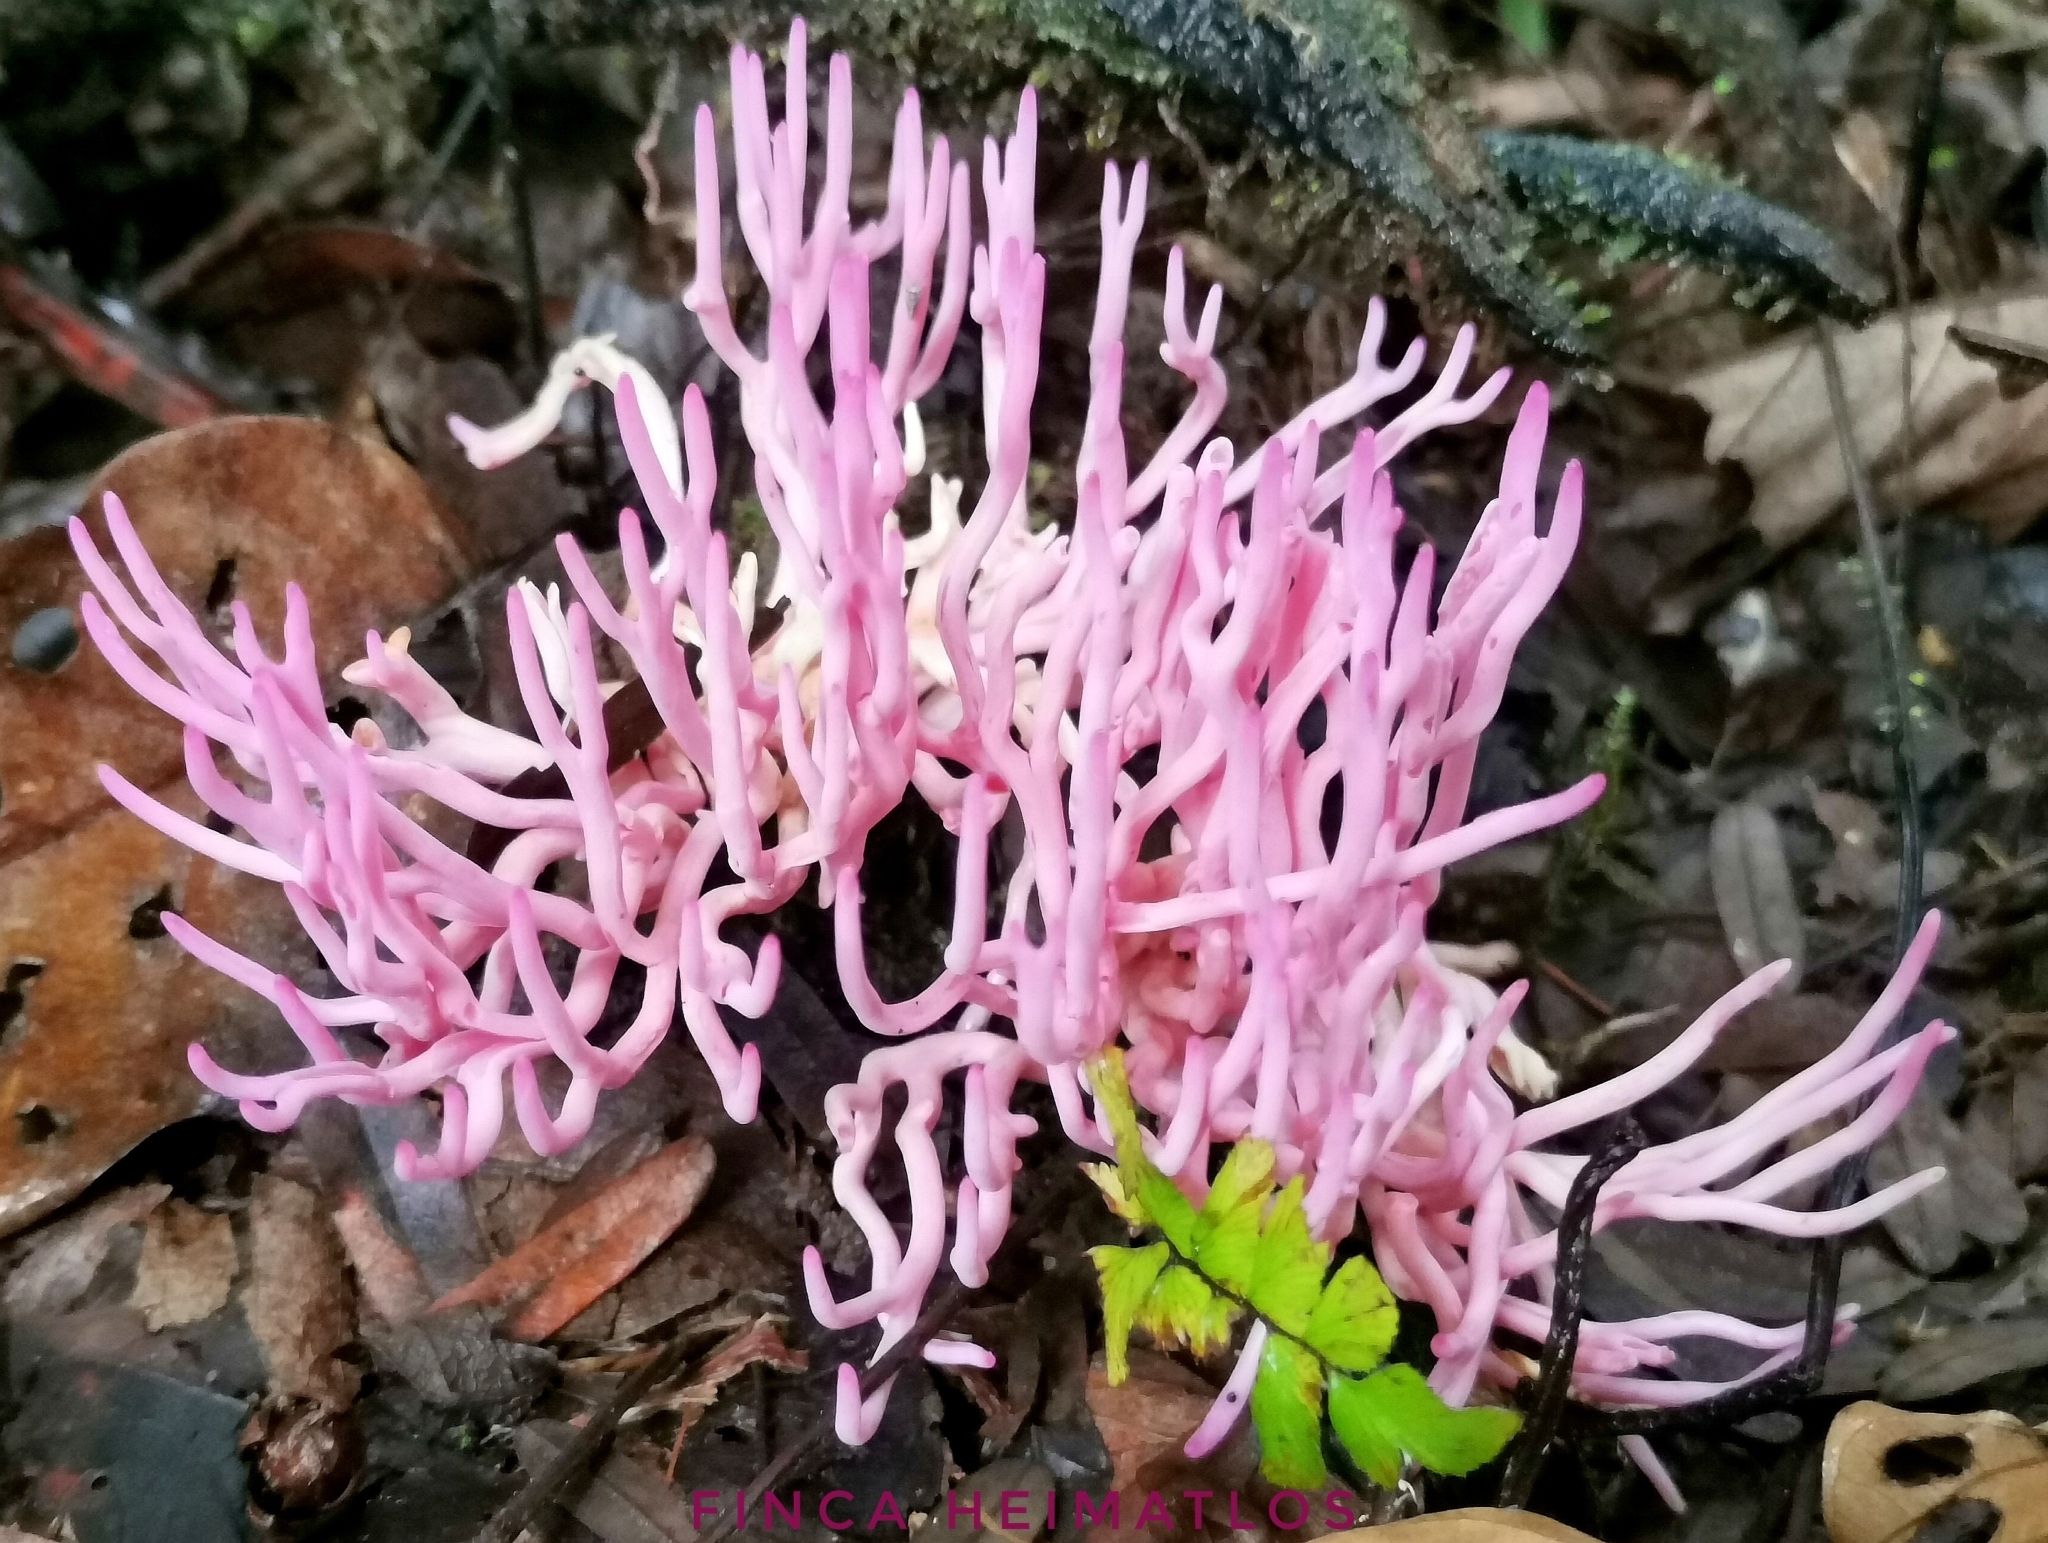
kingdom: Fungi
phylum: Basidiomycota
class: Agaricomycetes
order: Agaricales
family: Clavariaceae
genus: Clavaria
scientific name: Clavaria zollingeri
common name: Violet coral
